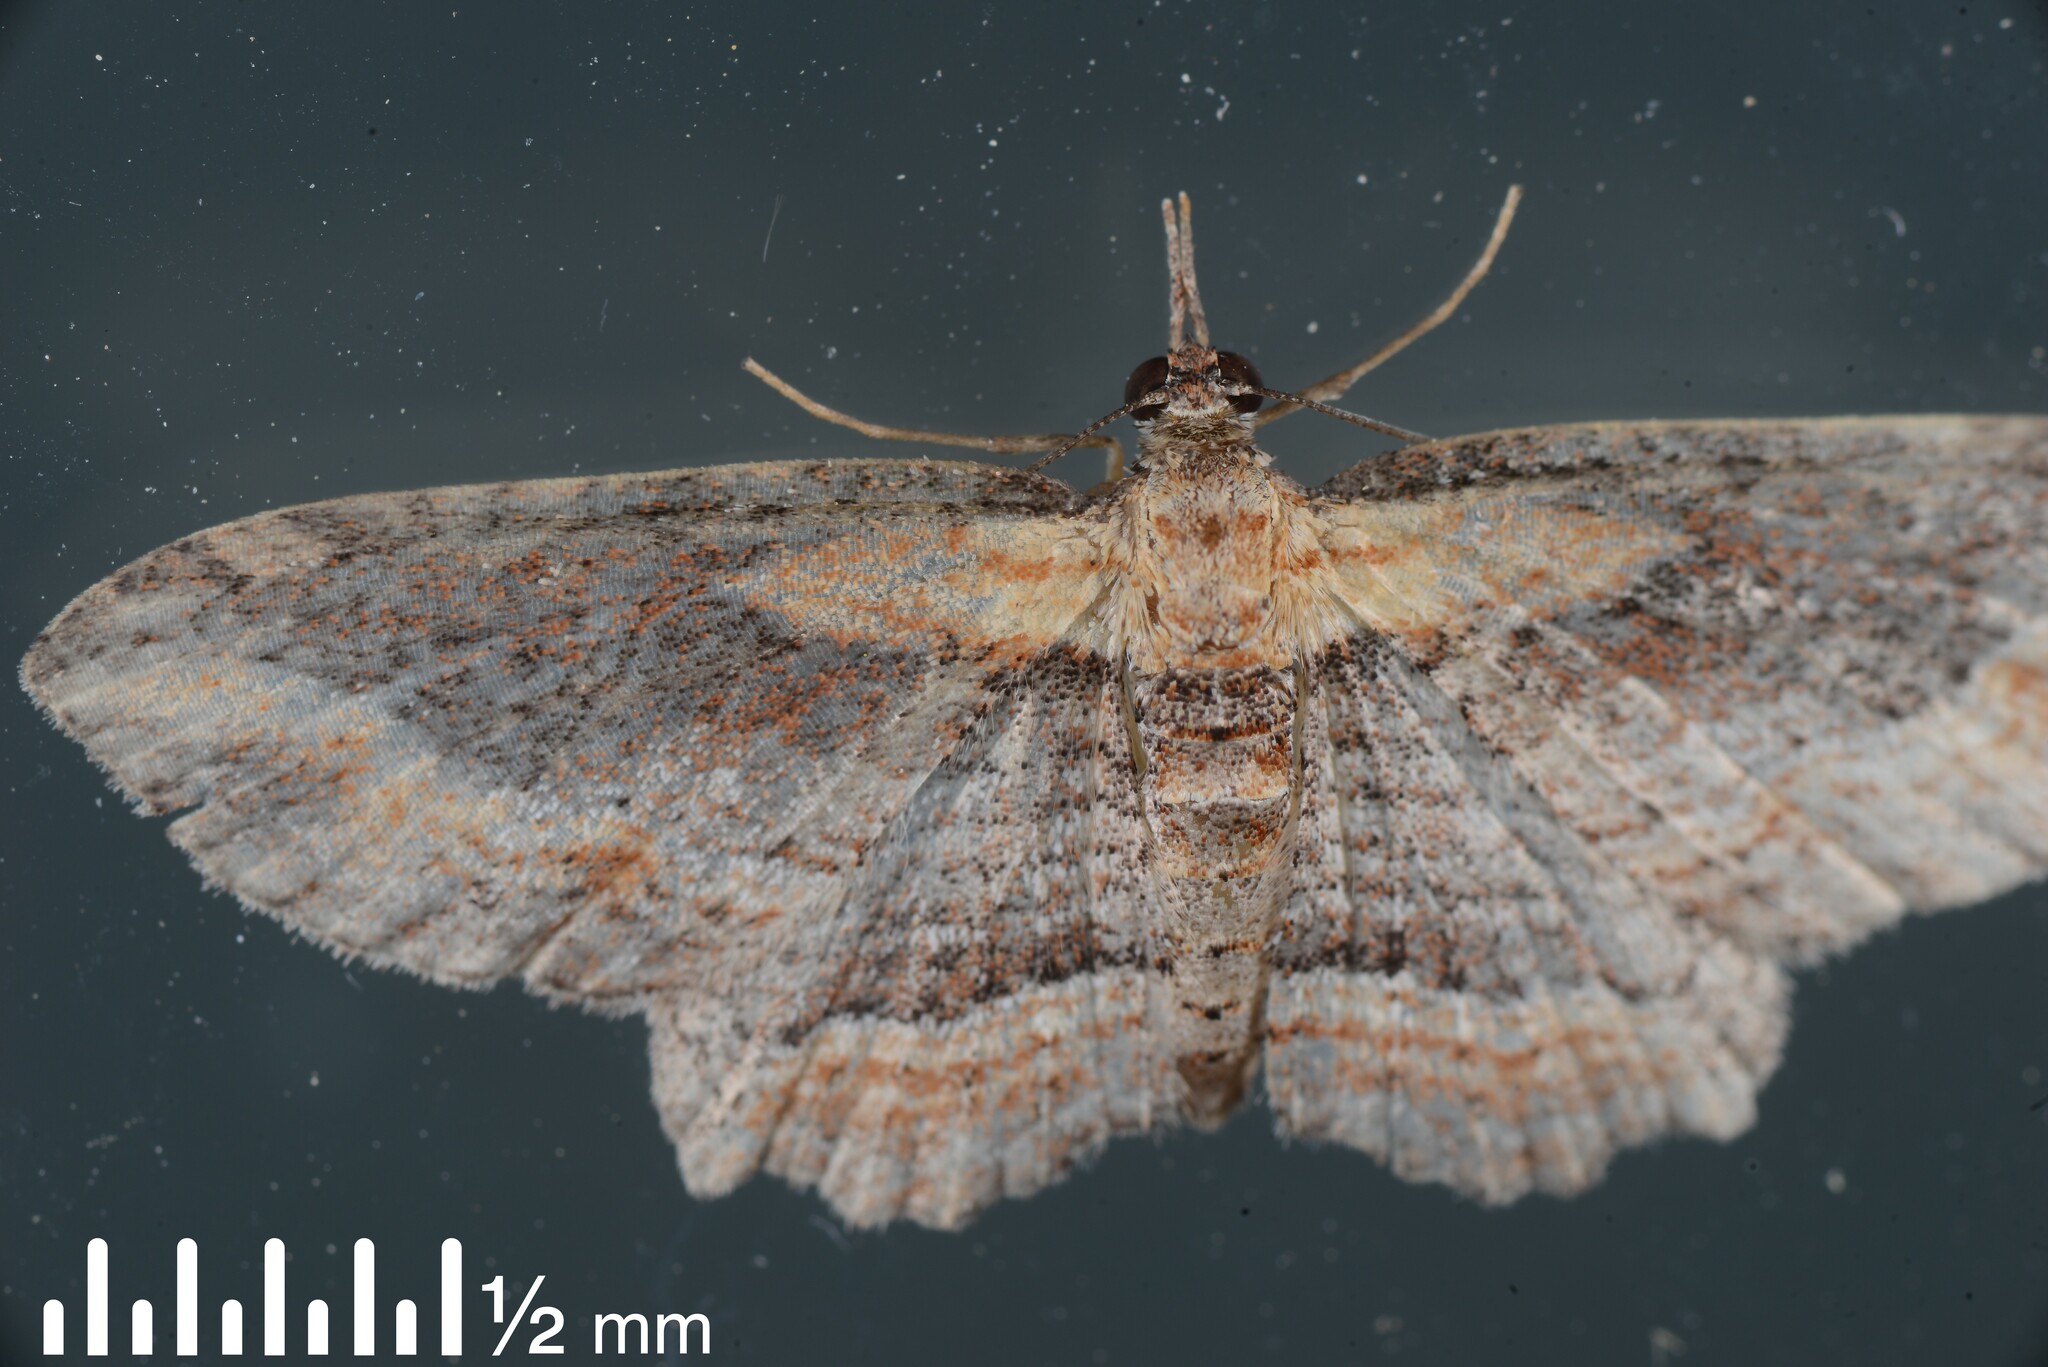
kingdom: Animalia
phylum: Arthropoda
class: Insecta
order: Lepidoptera
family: Geometridae
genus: Chloroclystis
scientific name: Chloroclystis filata
